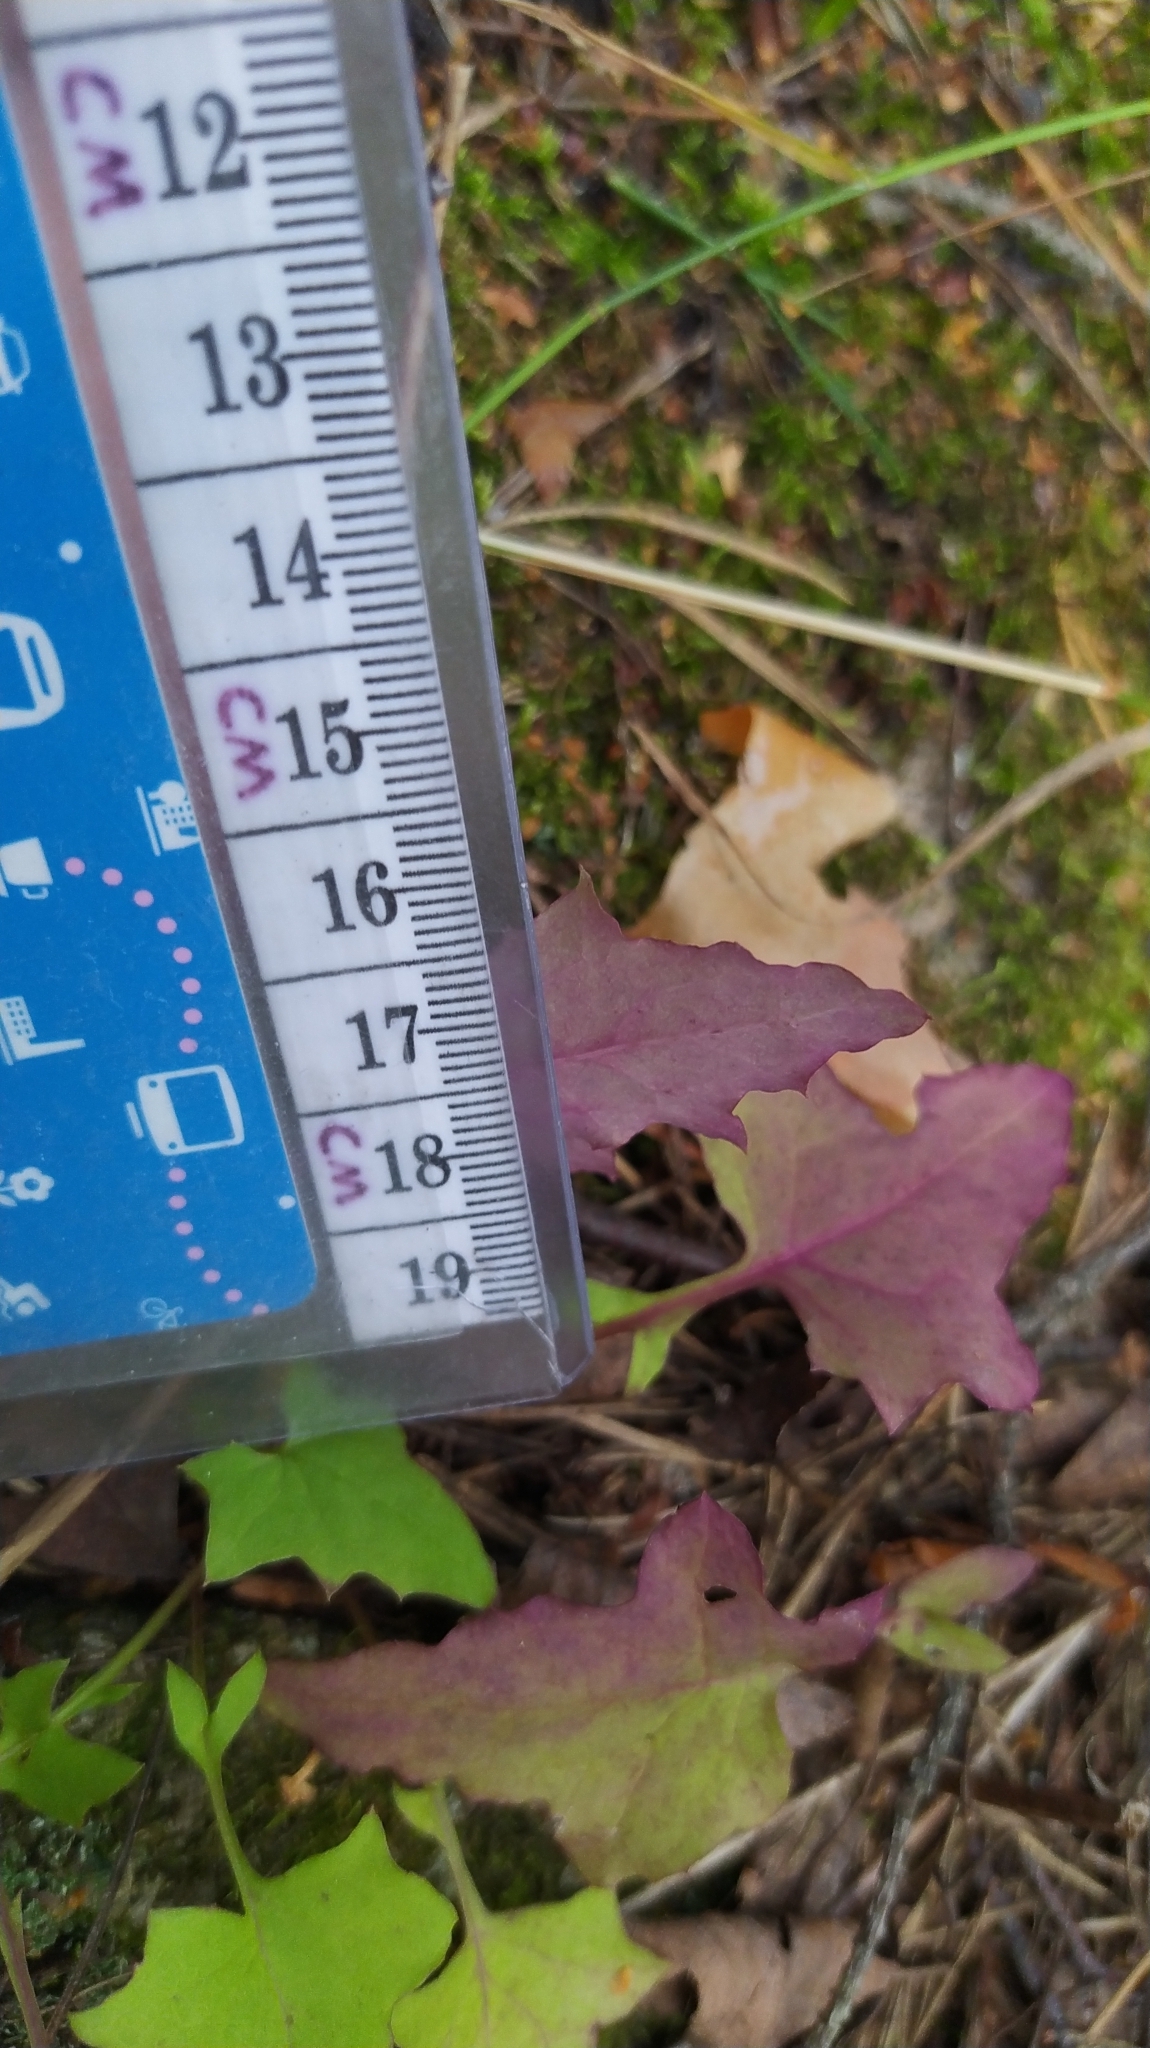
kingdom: Plantae
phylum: Tracheophyta
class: Magnoliopsida
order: Asterales
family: Asteraceae
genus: Mycelis
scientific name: Mycelis muralis
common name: Wall lettuce
